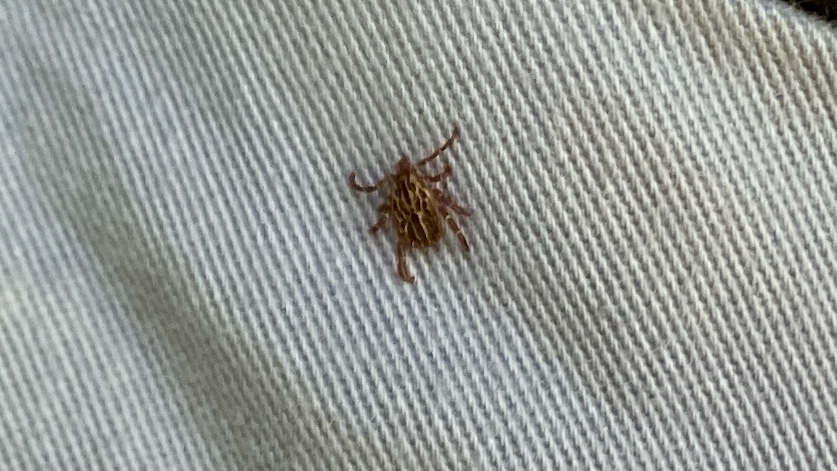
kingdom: Animalia
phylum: Arthropoda
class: Arachnida
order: Ixodida
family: Ixodidae
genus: Amblyomma
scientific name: Amblyomma maculatum
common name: Gulf coast tick
